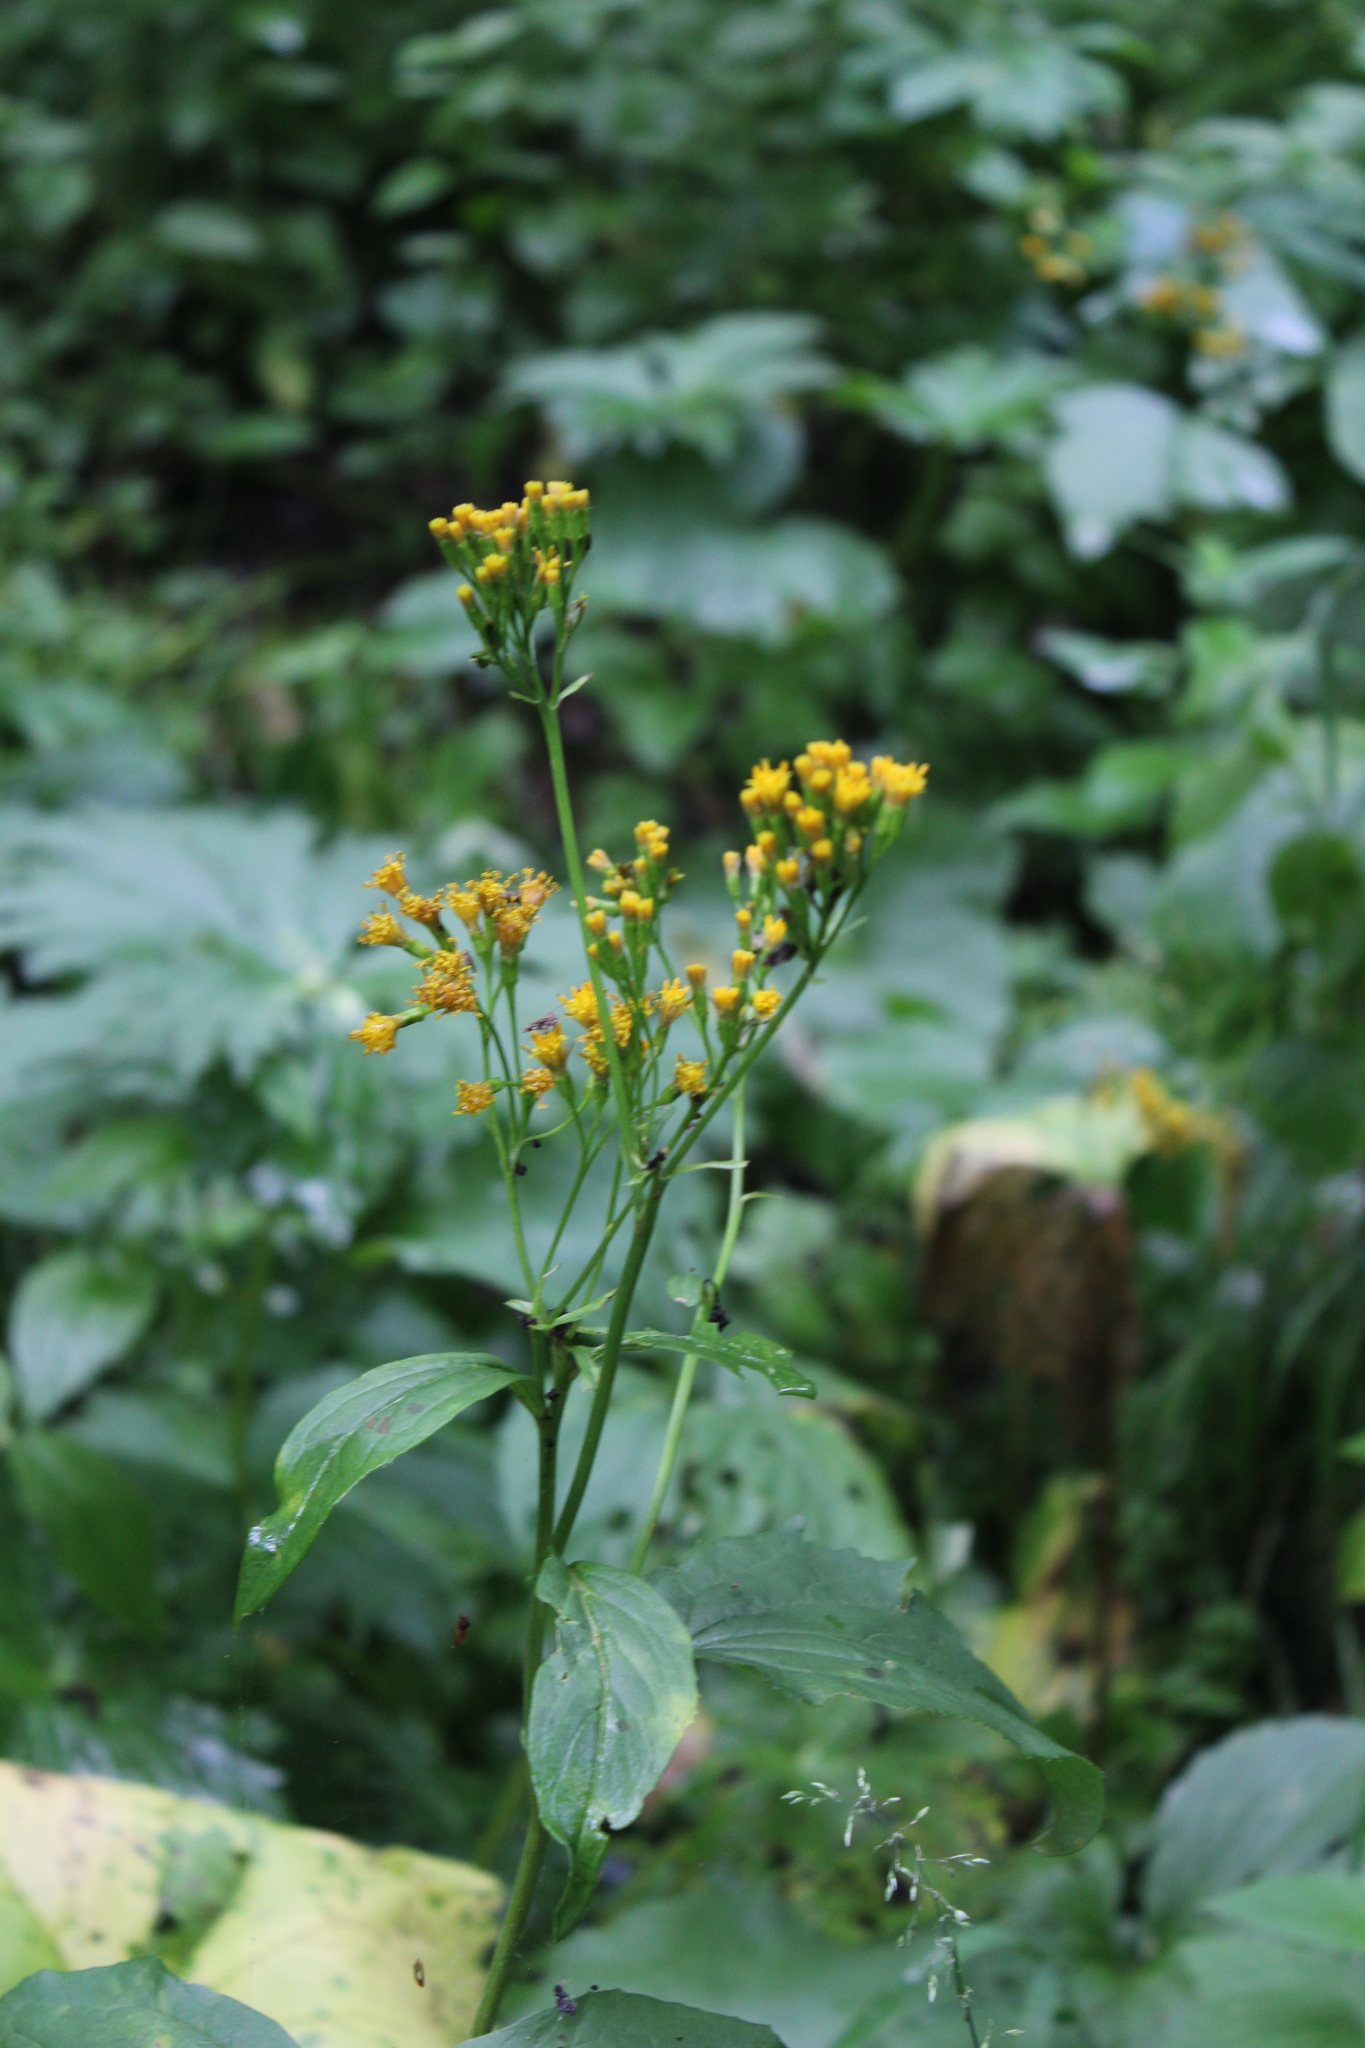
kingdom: Plantae
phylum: Tracheophyta
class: Magnoliopsida
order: Asterales
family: Asteraceae
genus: Caucasalia
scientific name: Caucasalia macrophylla
